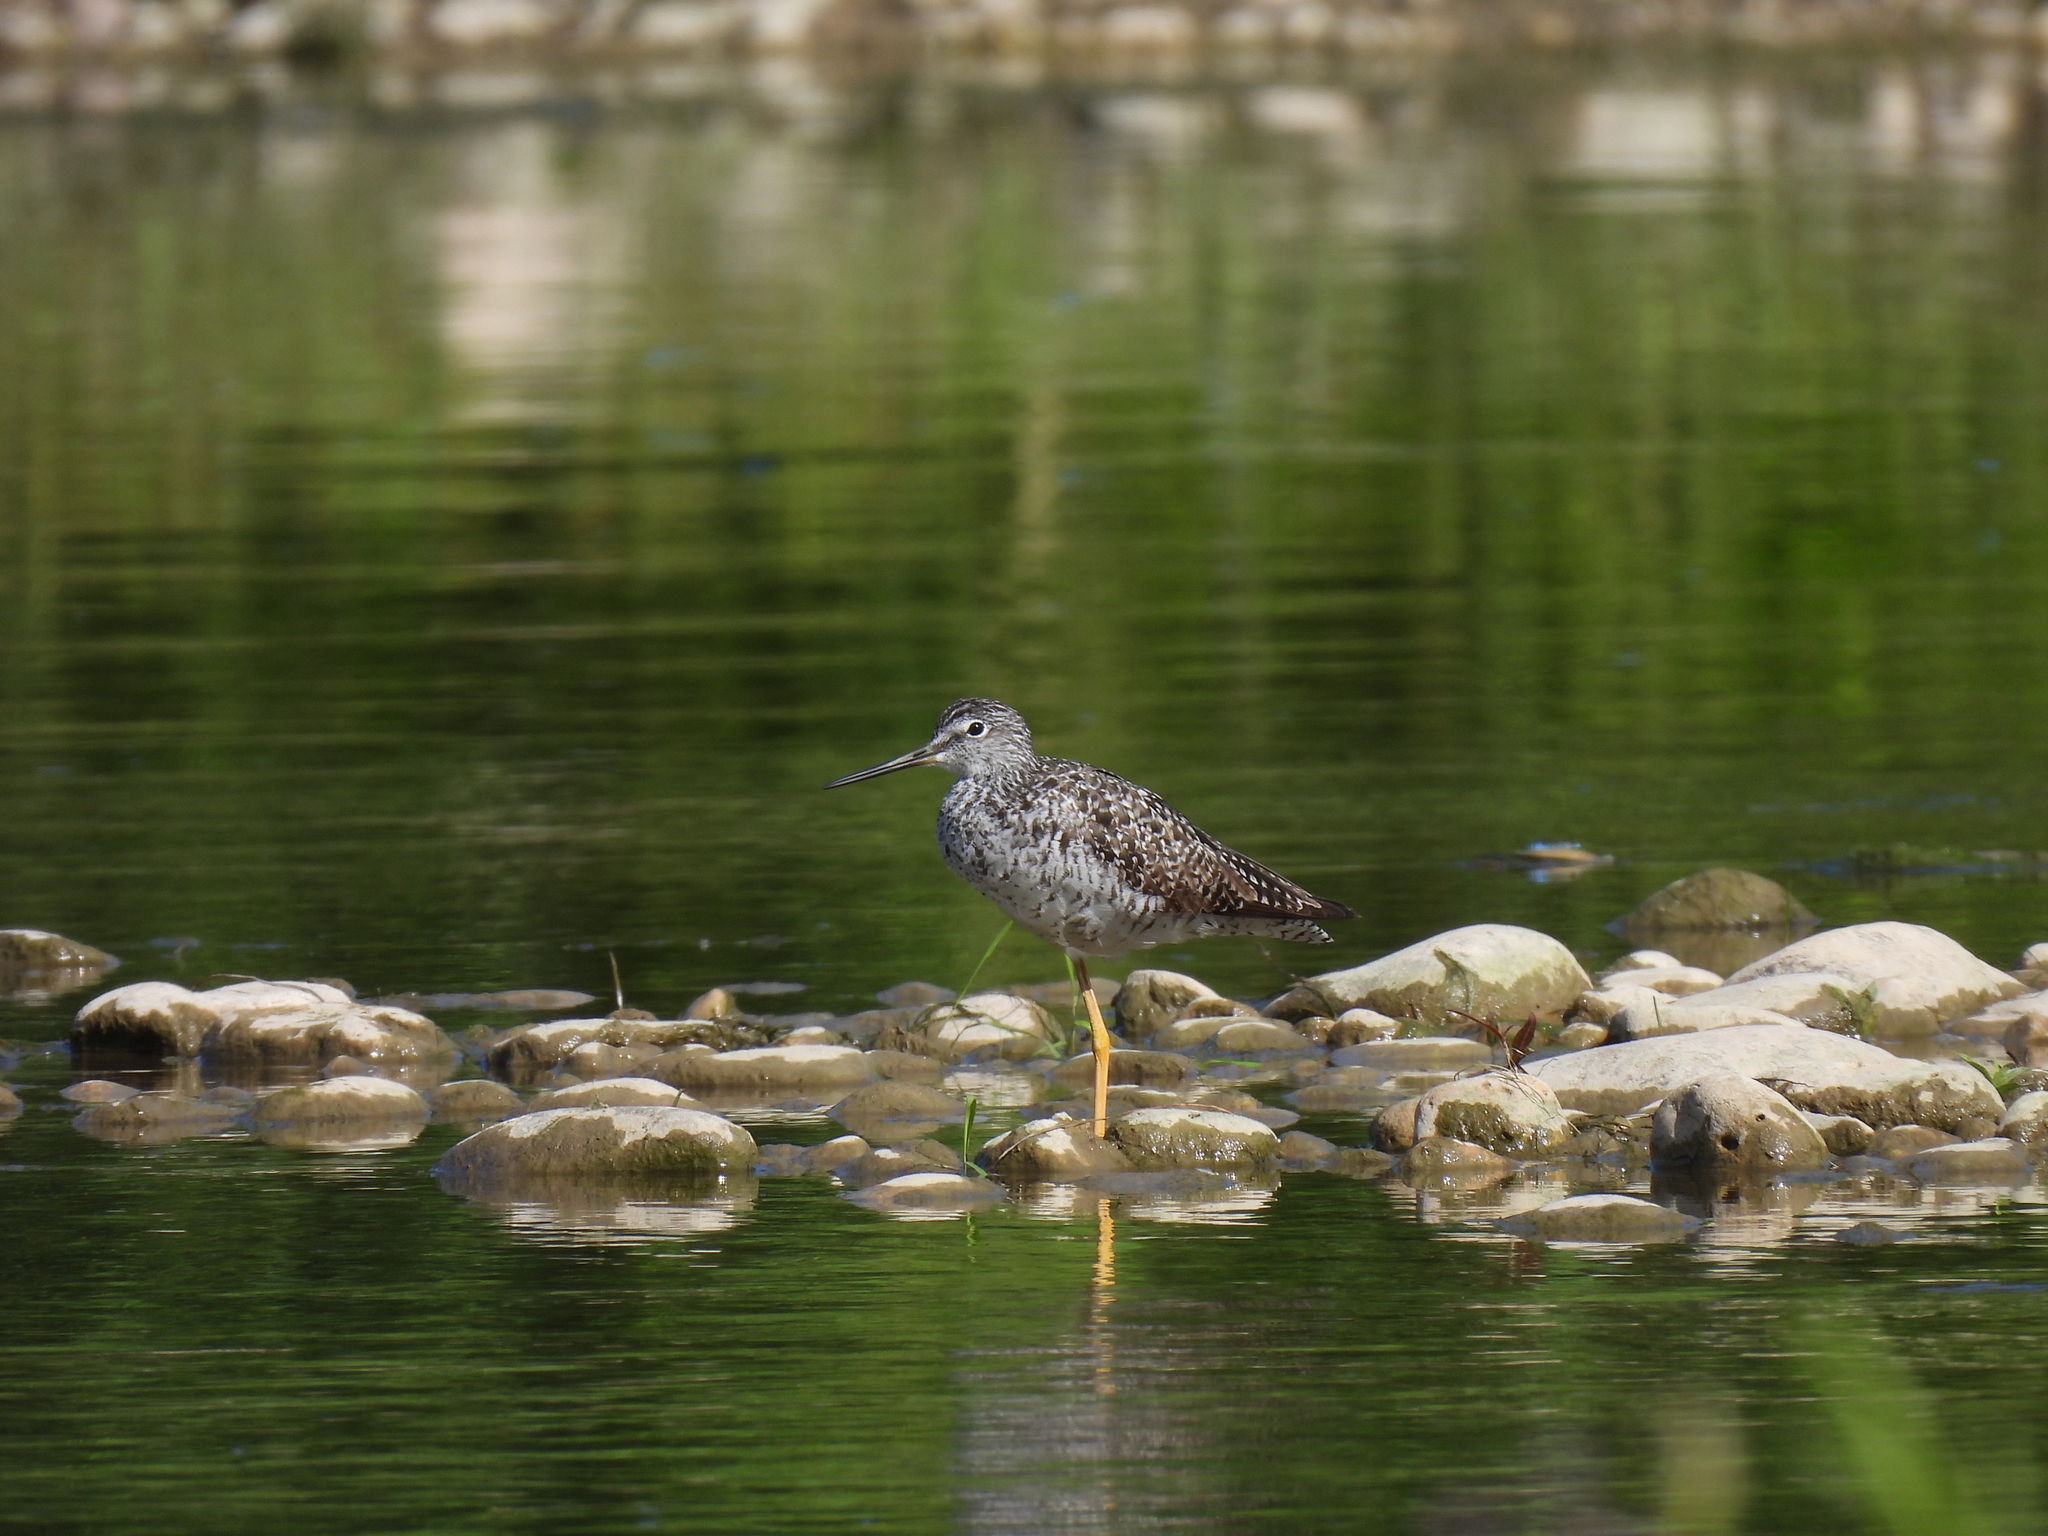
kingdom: Animalia
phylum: Chordata
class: Aves
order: Charadriiformes
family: Scolopacidae
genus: Tringa
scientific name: Tringa flavipes
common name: Lesser yellowlegs
